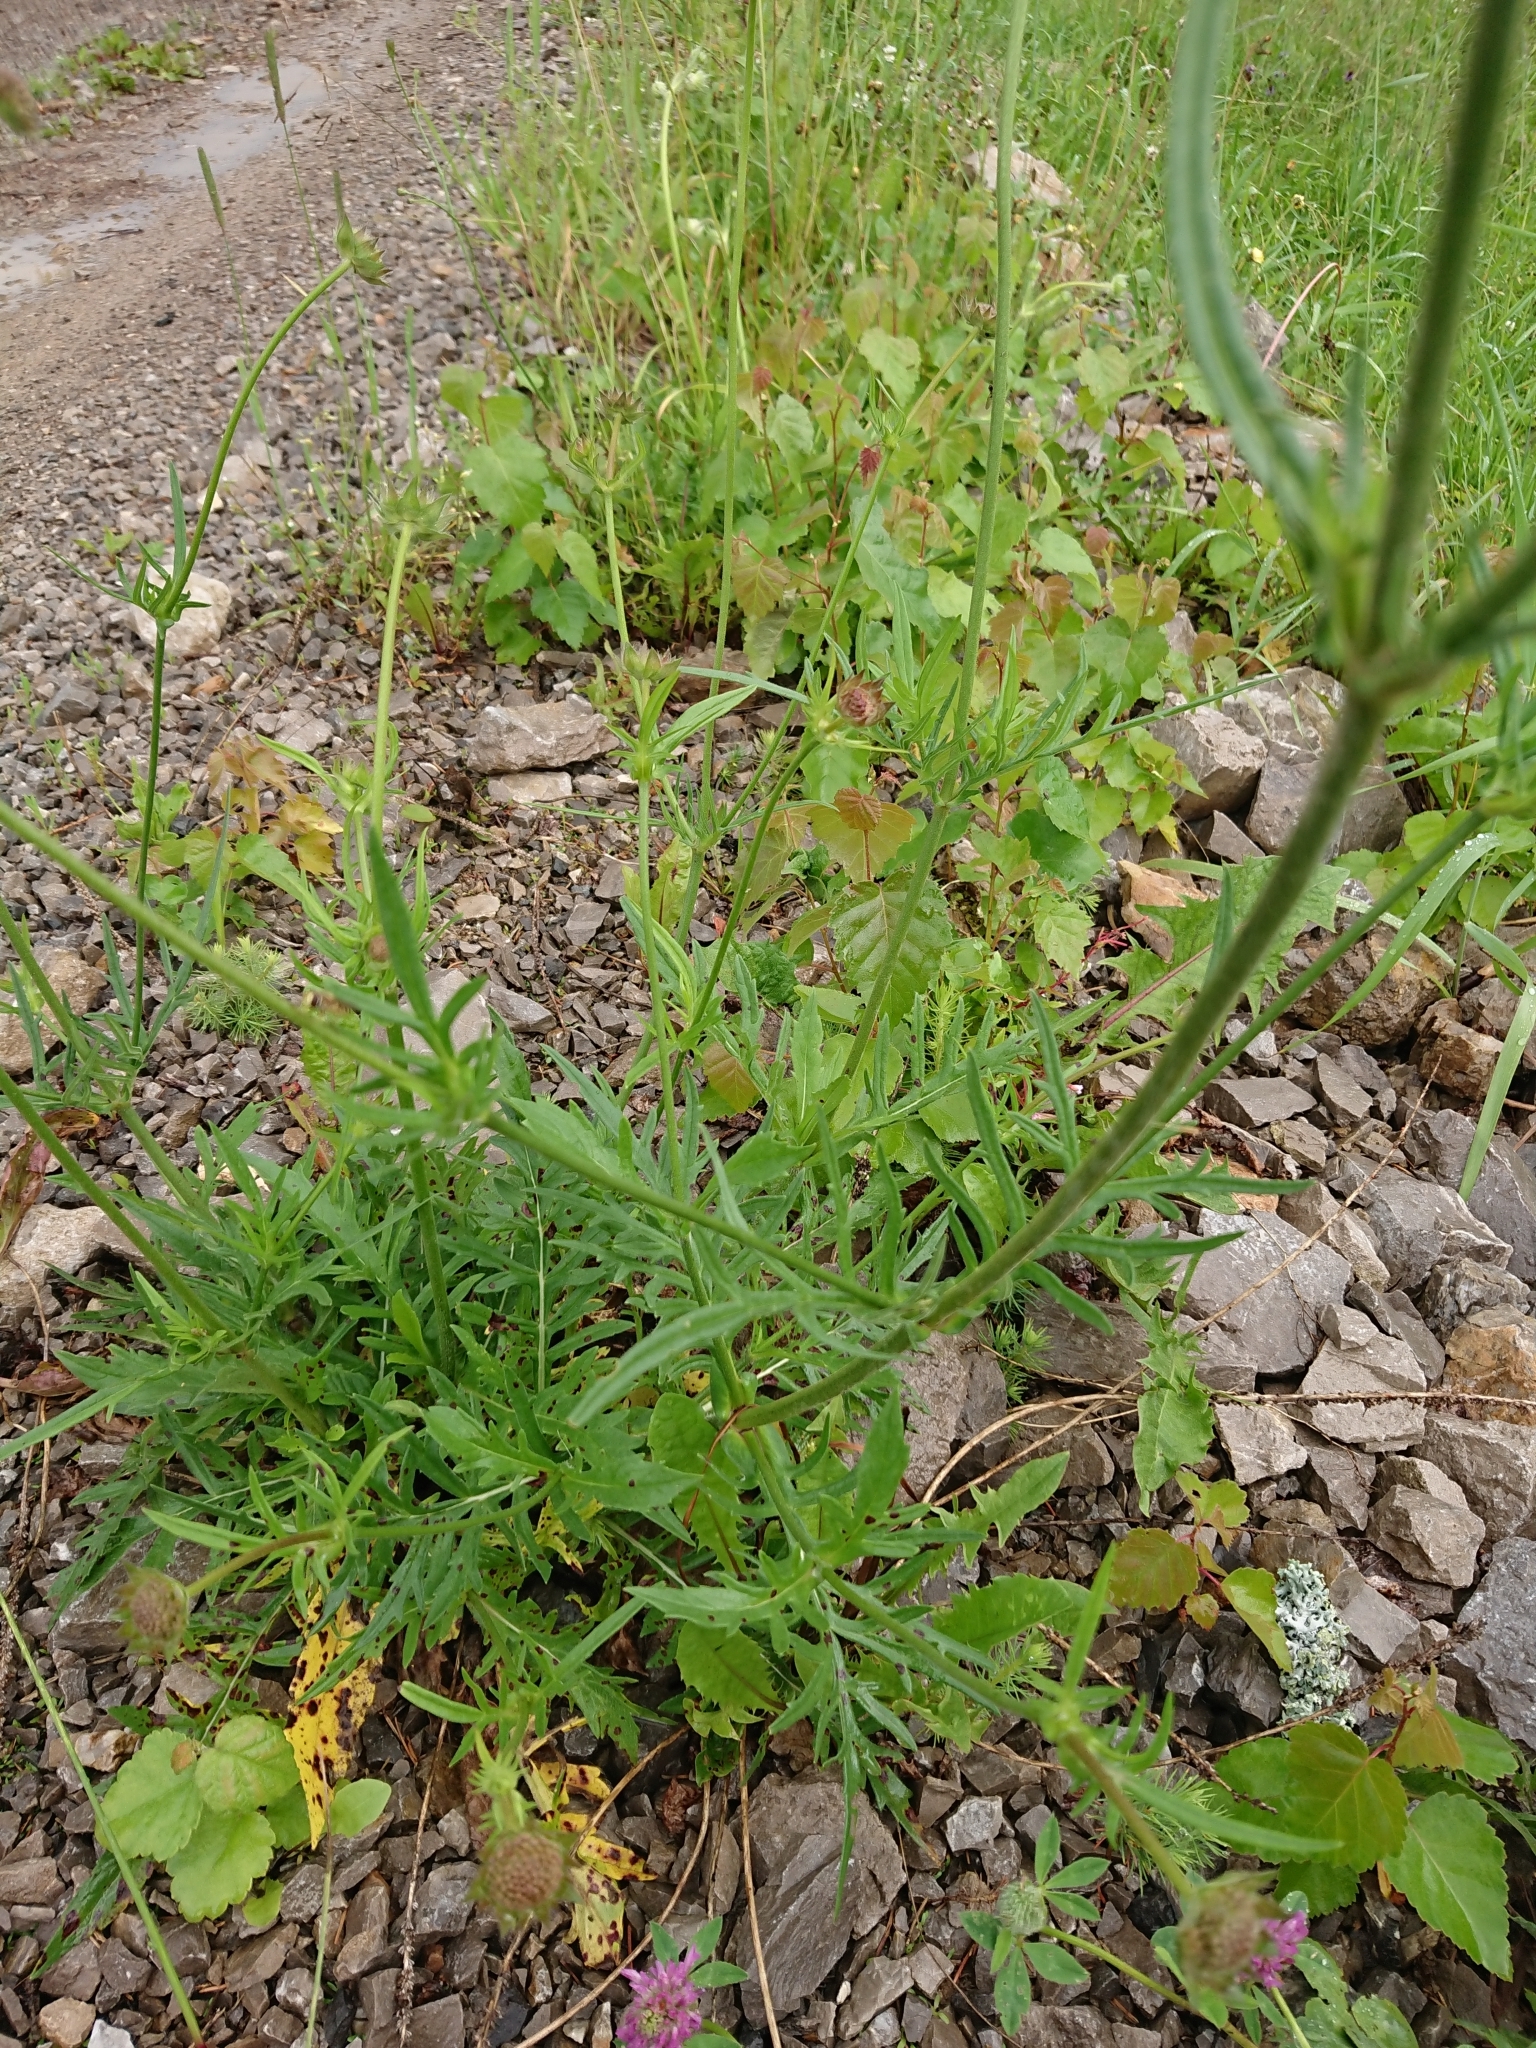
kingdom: Plantae
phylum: Tracheophyta
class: Magnoliopsida
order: Dipsacales
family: Caprifoliaceae
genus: Knautia
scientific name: Knautia arvensis
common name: Field scabiosa
